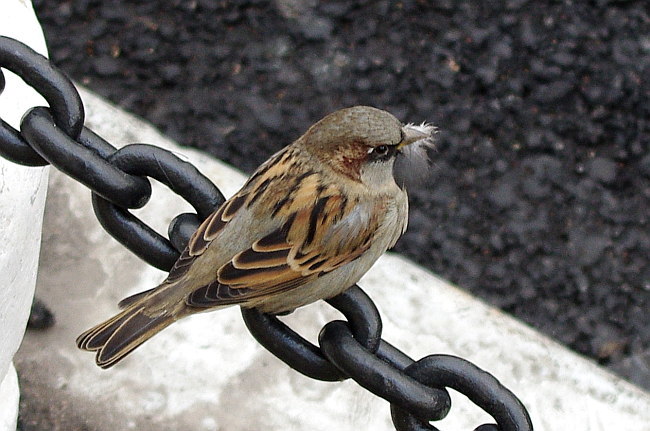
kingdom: Animalia
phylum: Chordata
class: Aves
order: Passeriformes
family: Passeridae
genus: Passer
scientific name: Passer domesticus
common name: House sparrow
